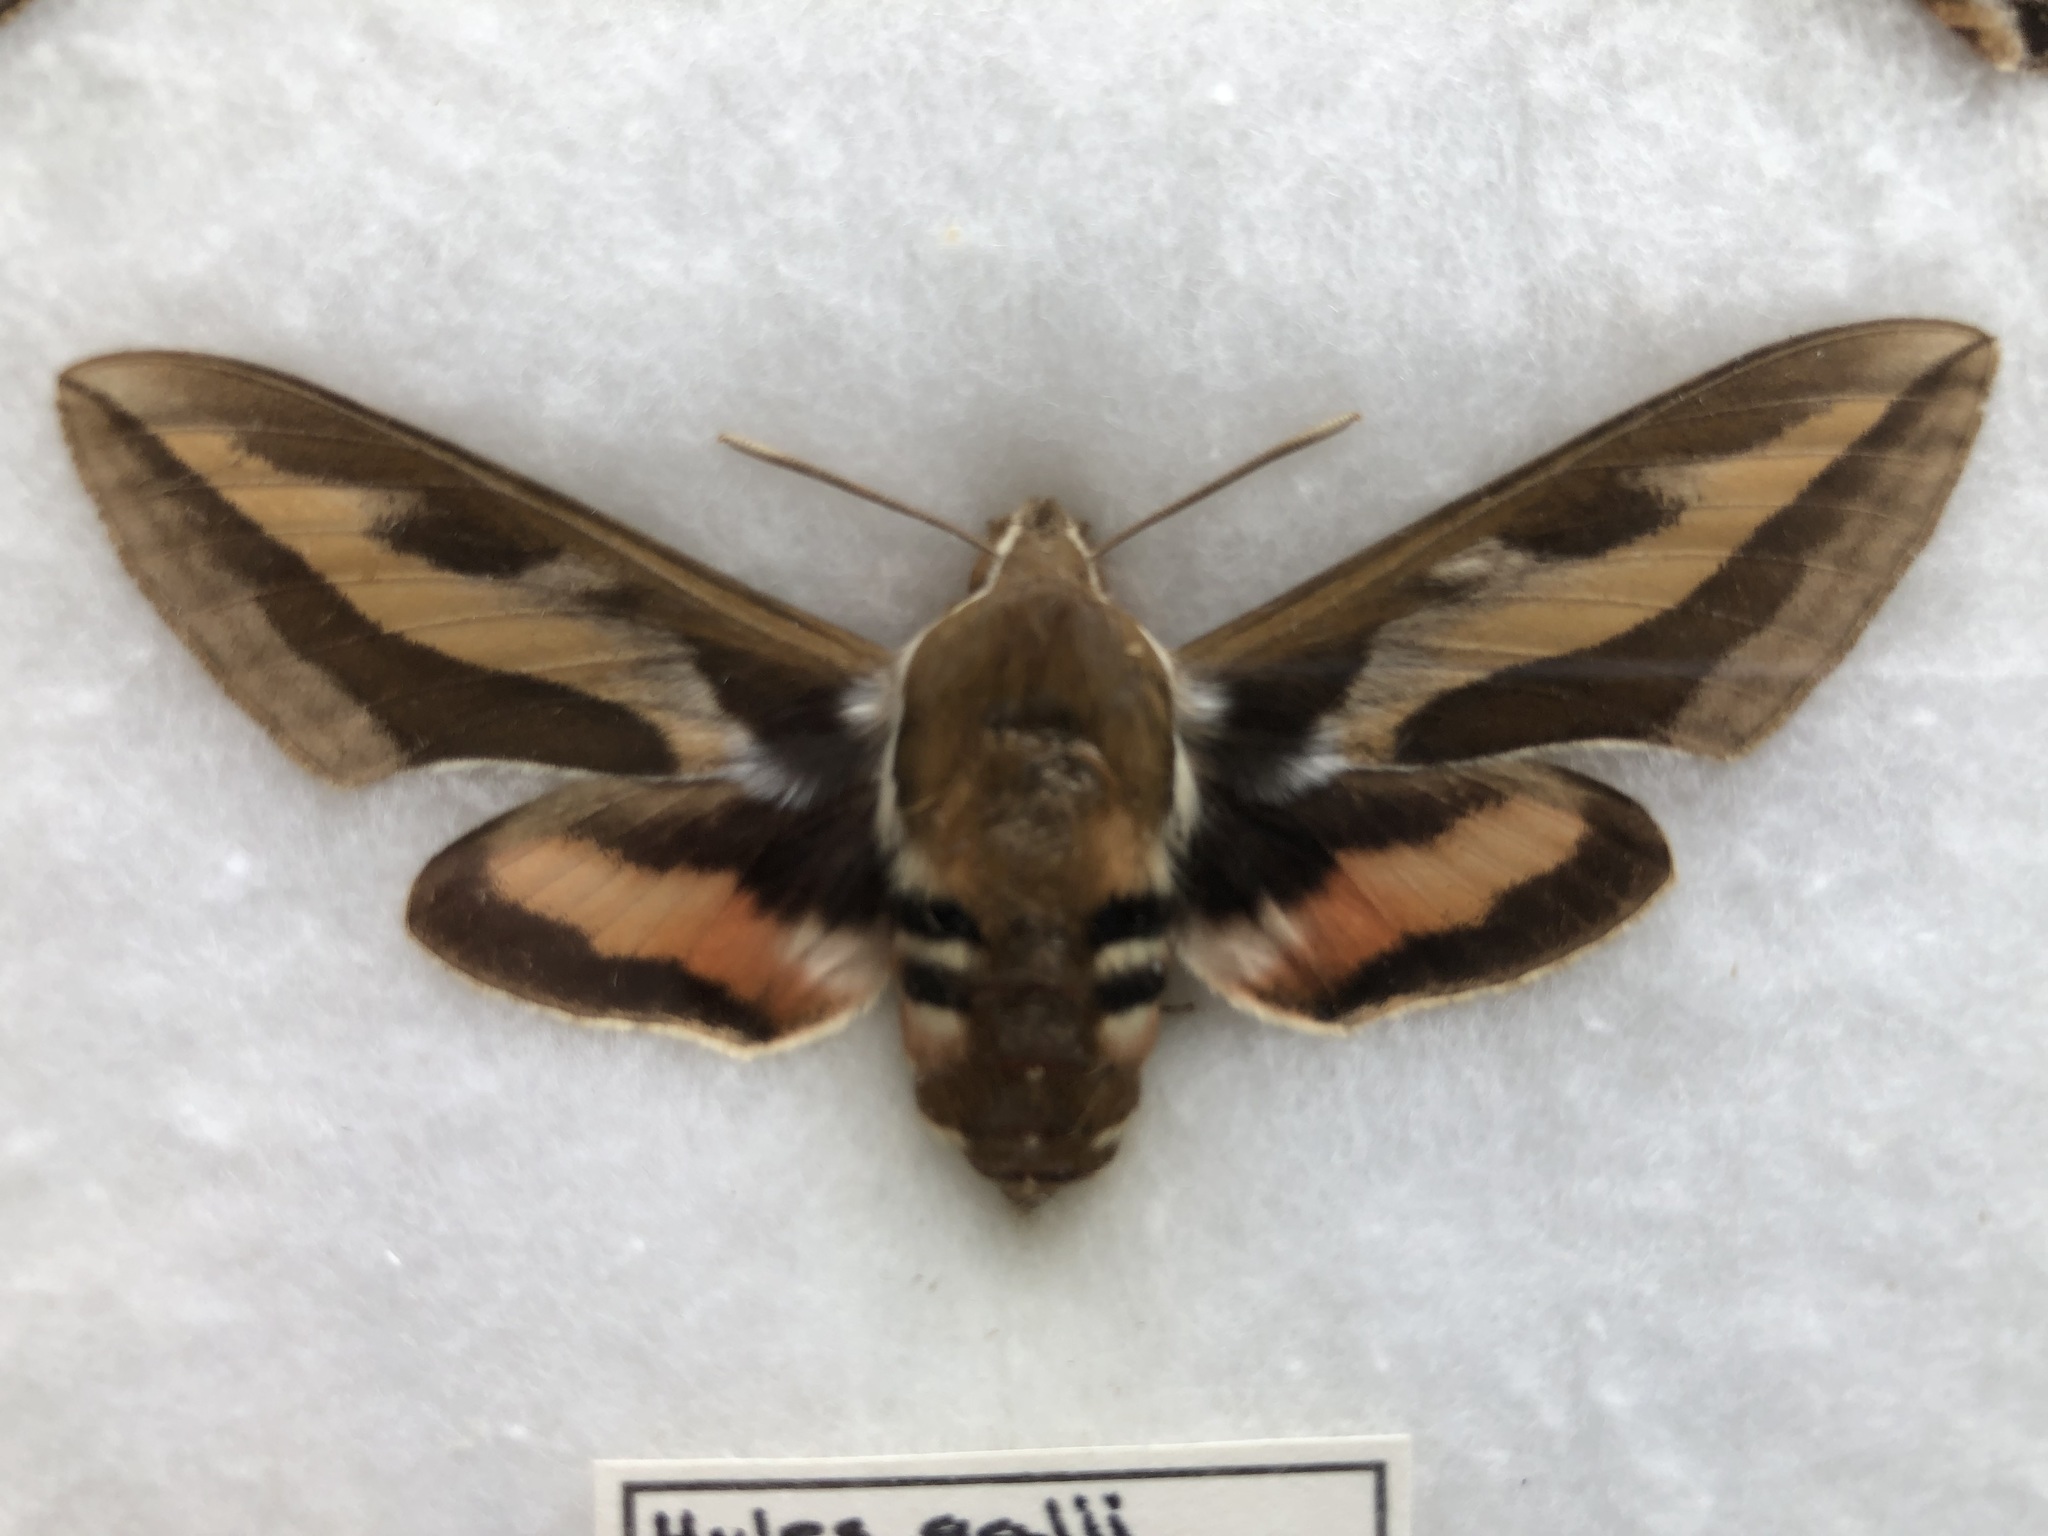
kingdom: Animalia
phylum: Arthropoda
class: Insecta
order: Lepidoptera
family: Sphingidae
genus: Hyles
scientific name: Hyles gallii
